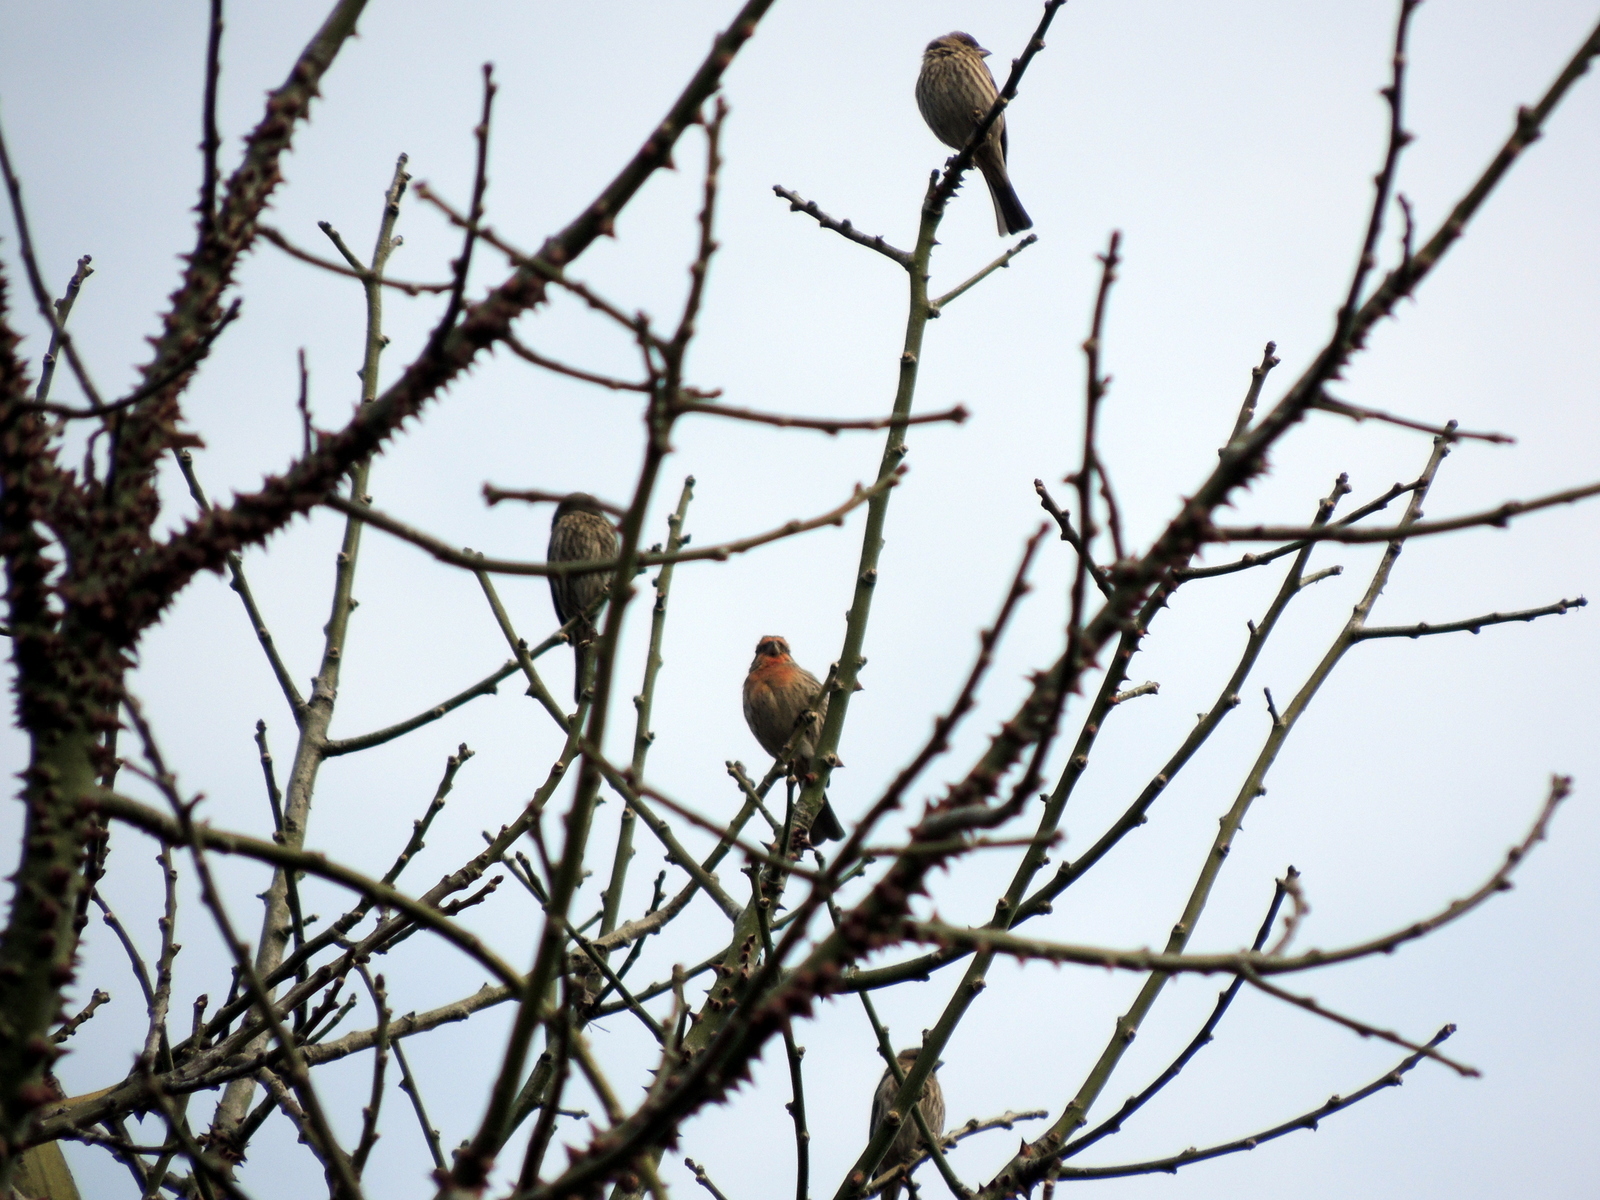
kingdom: Animalia
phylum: Chordata
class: Aves
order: Passeriformes
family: Fringillidae
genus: Haemorhous
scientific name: Haemorhous mexicanus
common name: House finch
